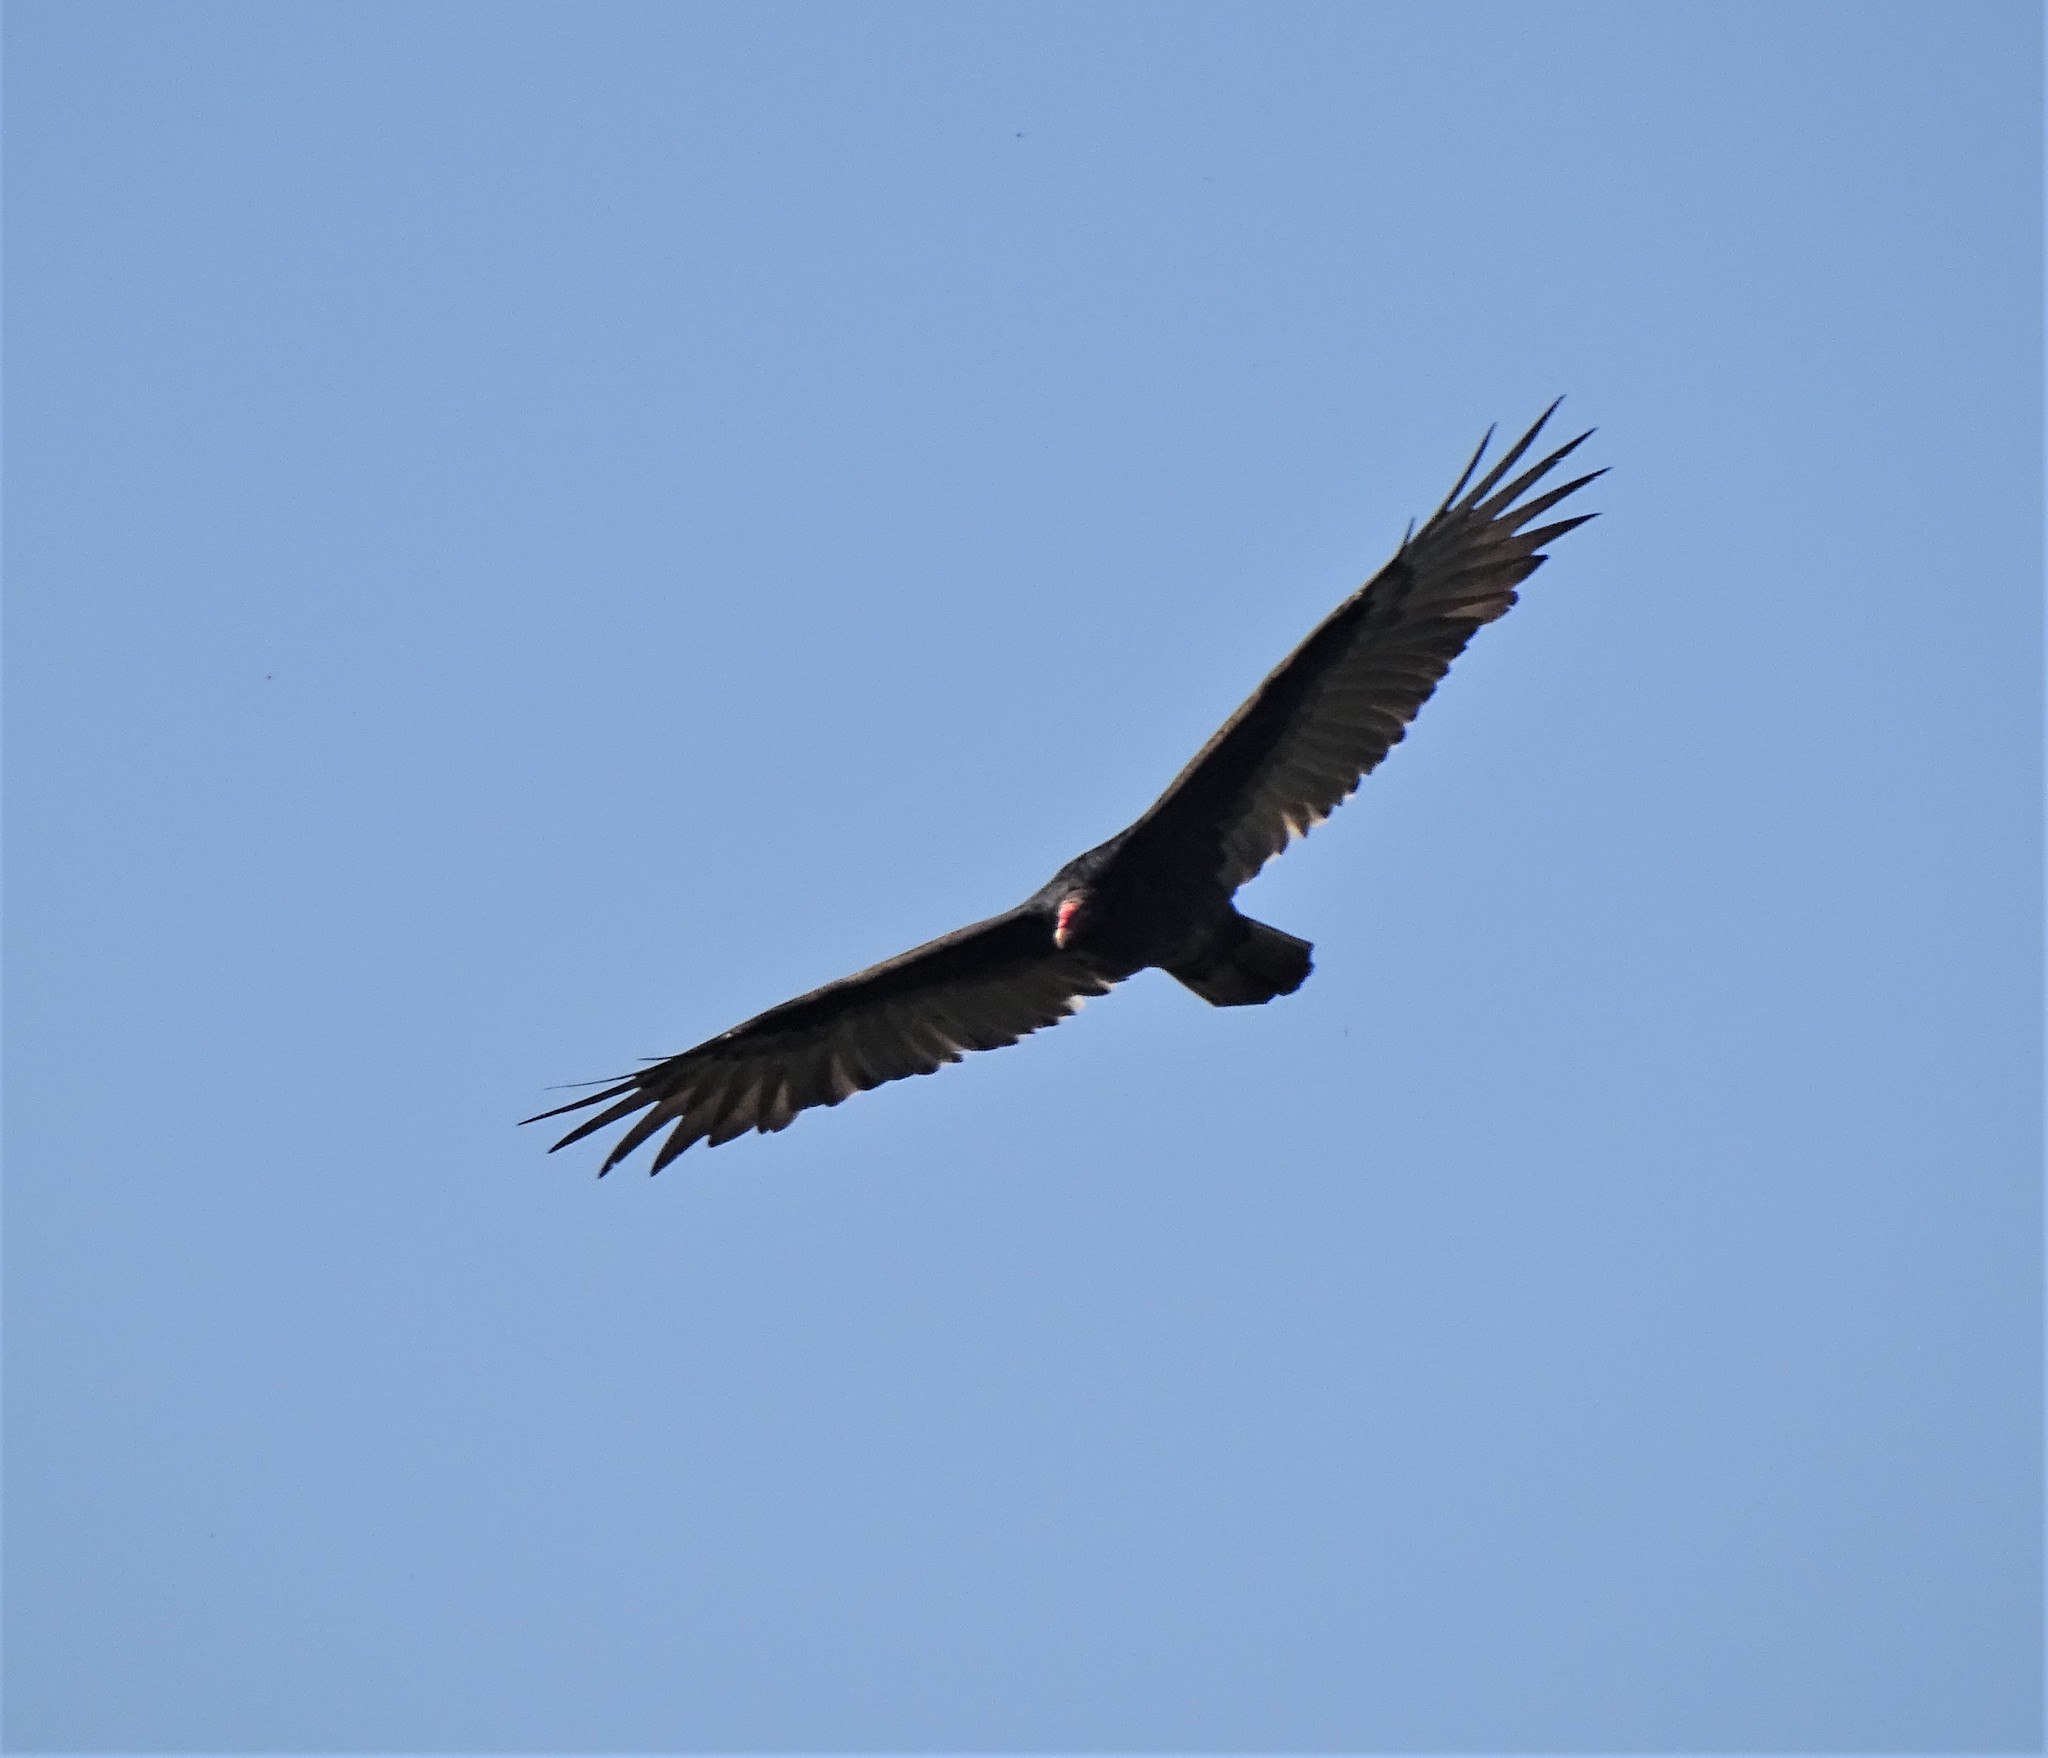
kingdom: Animalia
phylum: Chordata
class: Aves
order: Accipitriformes
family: Cathartidae
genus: Cathartes
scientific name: Cathartes aura
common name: Turkey vulture
